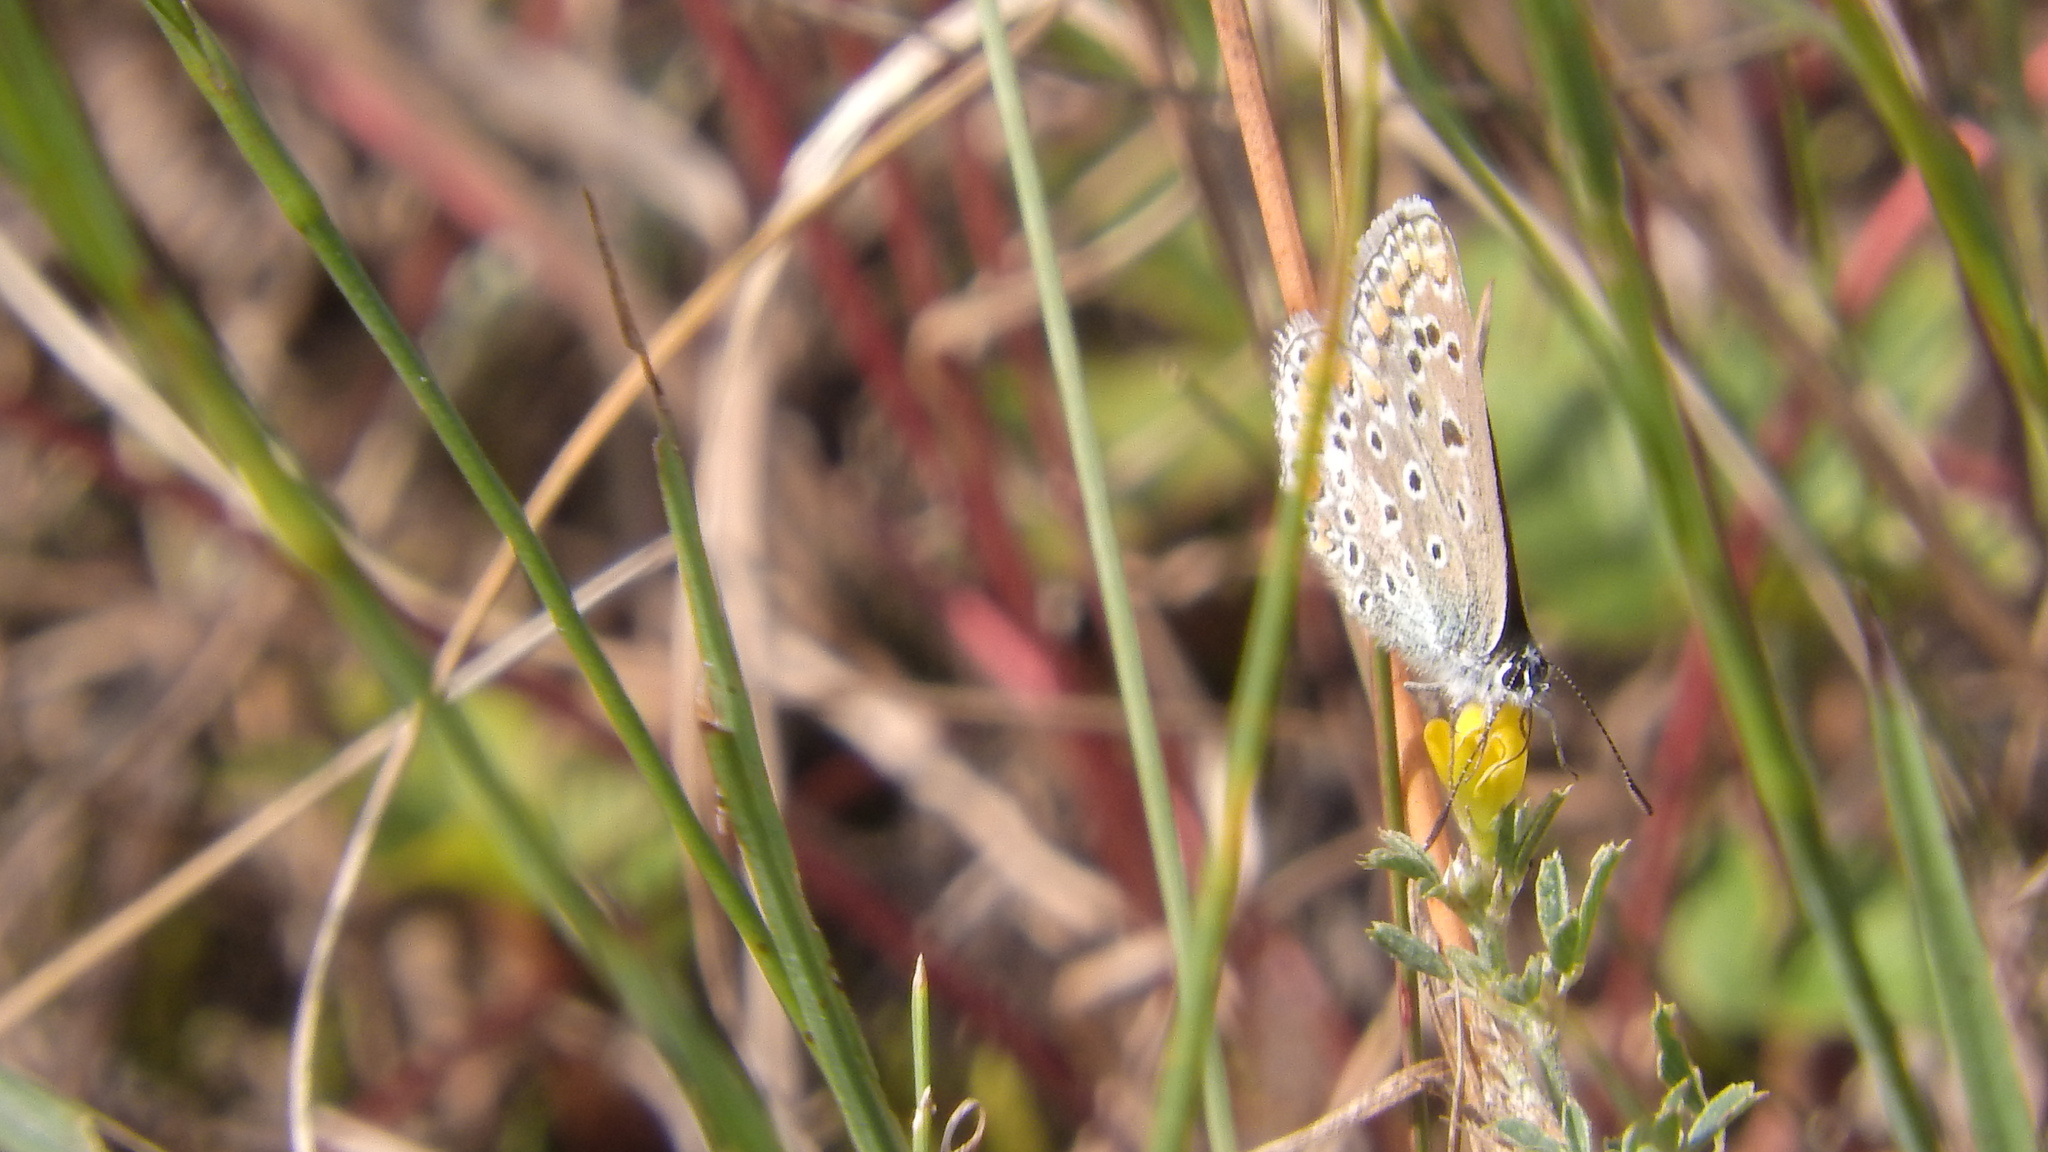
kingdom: Animalia
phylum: Arthropoda
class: Insecta
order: Lepidoptera
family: Lycaenidae
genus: Polyommatus
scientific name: Polyommatus icarus
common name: Common blue
